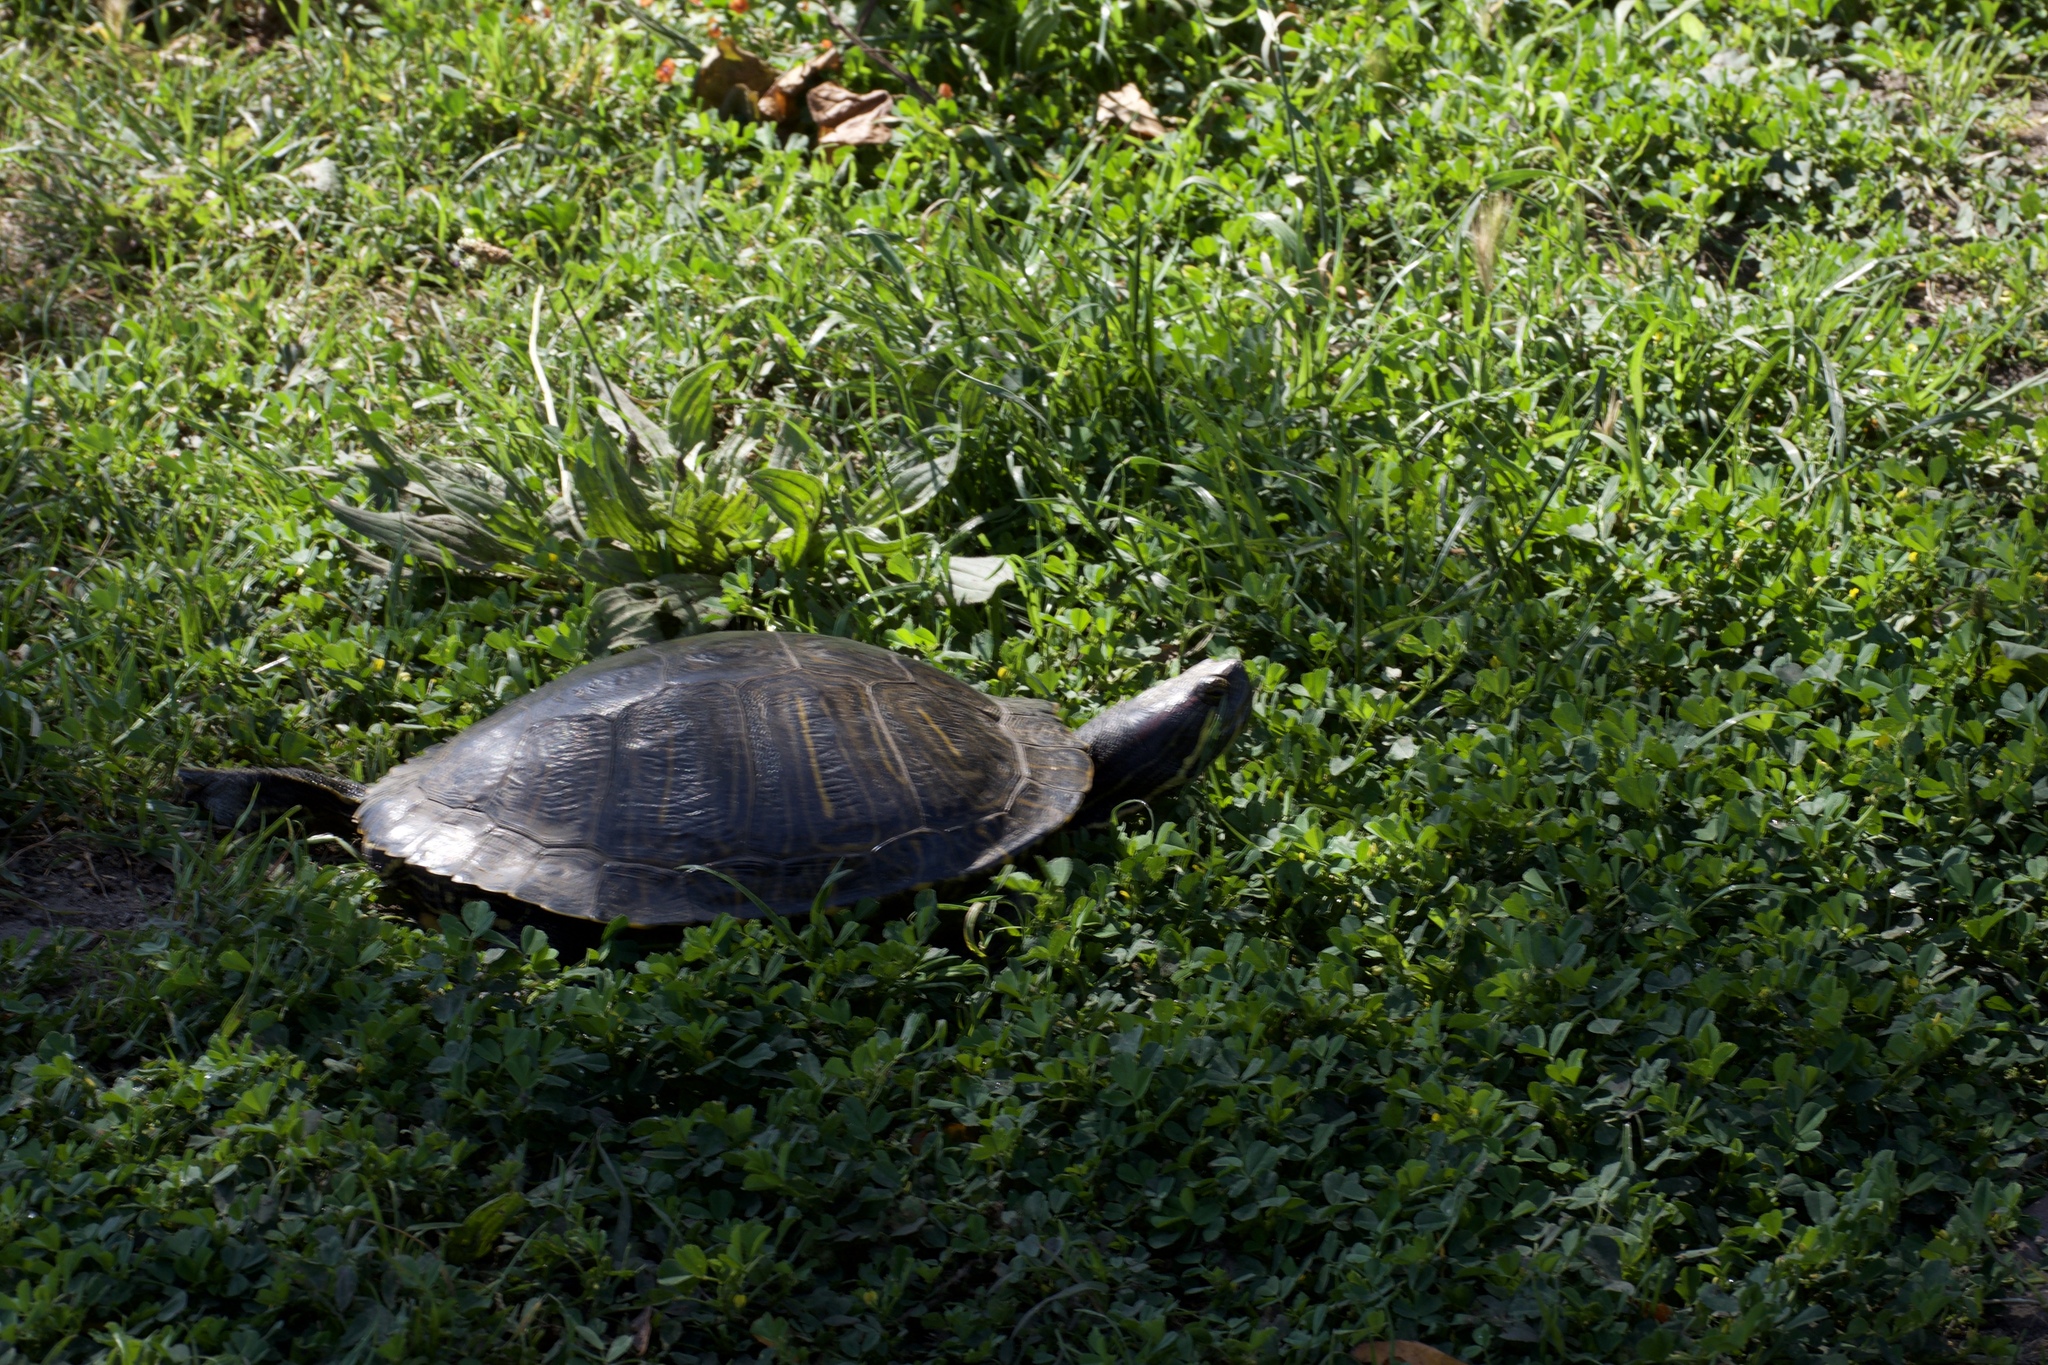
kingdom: Animalia
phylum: Chordata
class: Testudines
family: Emydidae
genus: Trachemys
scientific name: Trachemys scripta
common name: Slider
